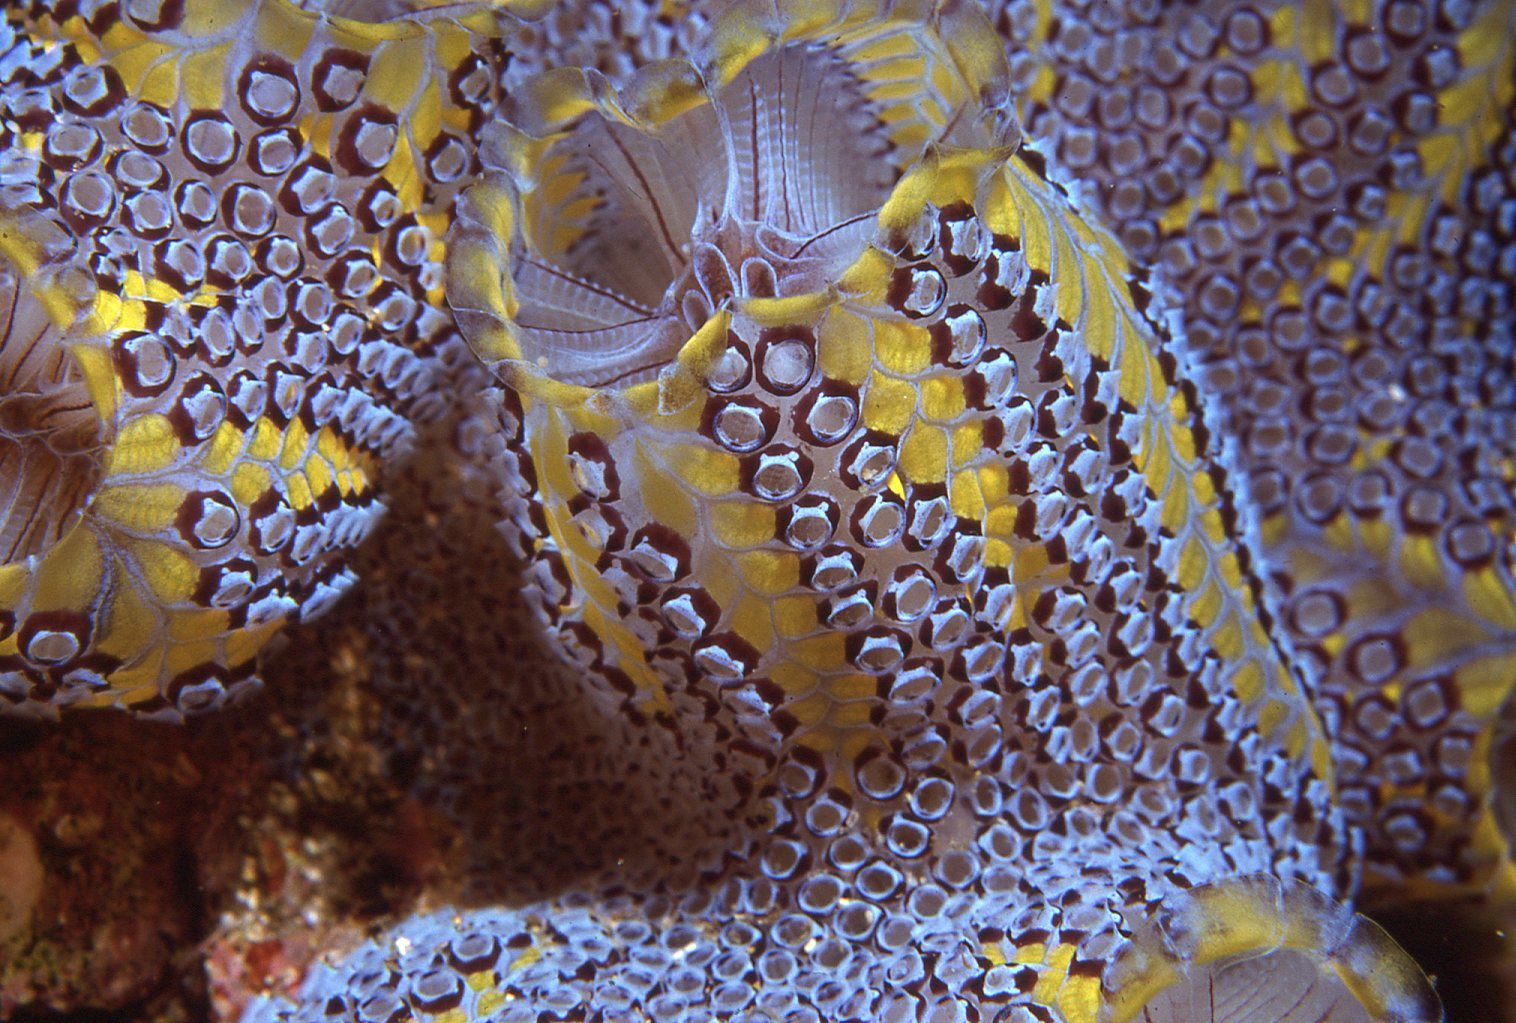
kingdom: Animalia
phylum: Chordata
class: Ascidiacea
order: Stolidobranchia
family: Styelidae
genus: Botrylloides
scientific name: Botrylloides magnicoecus
